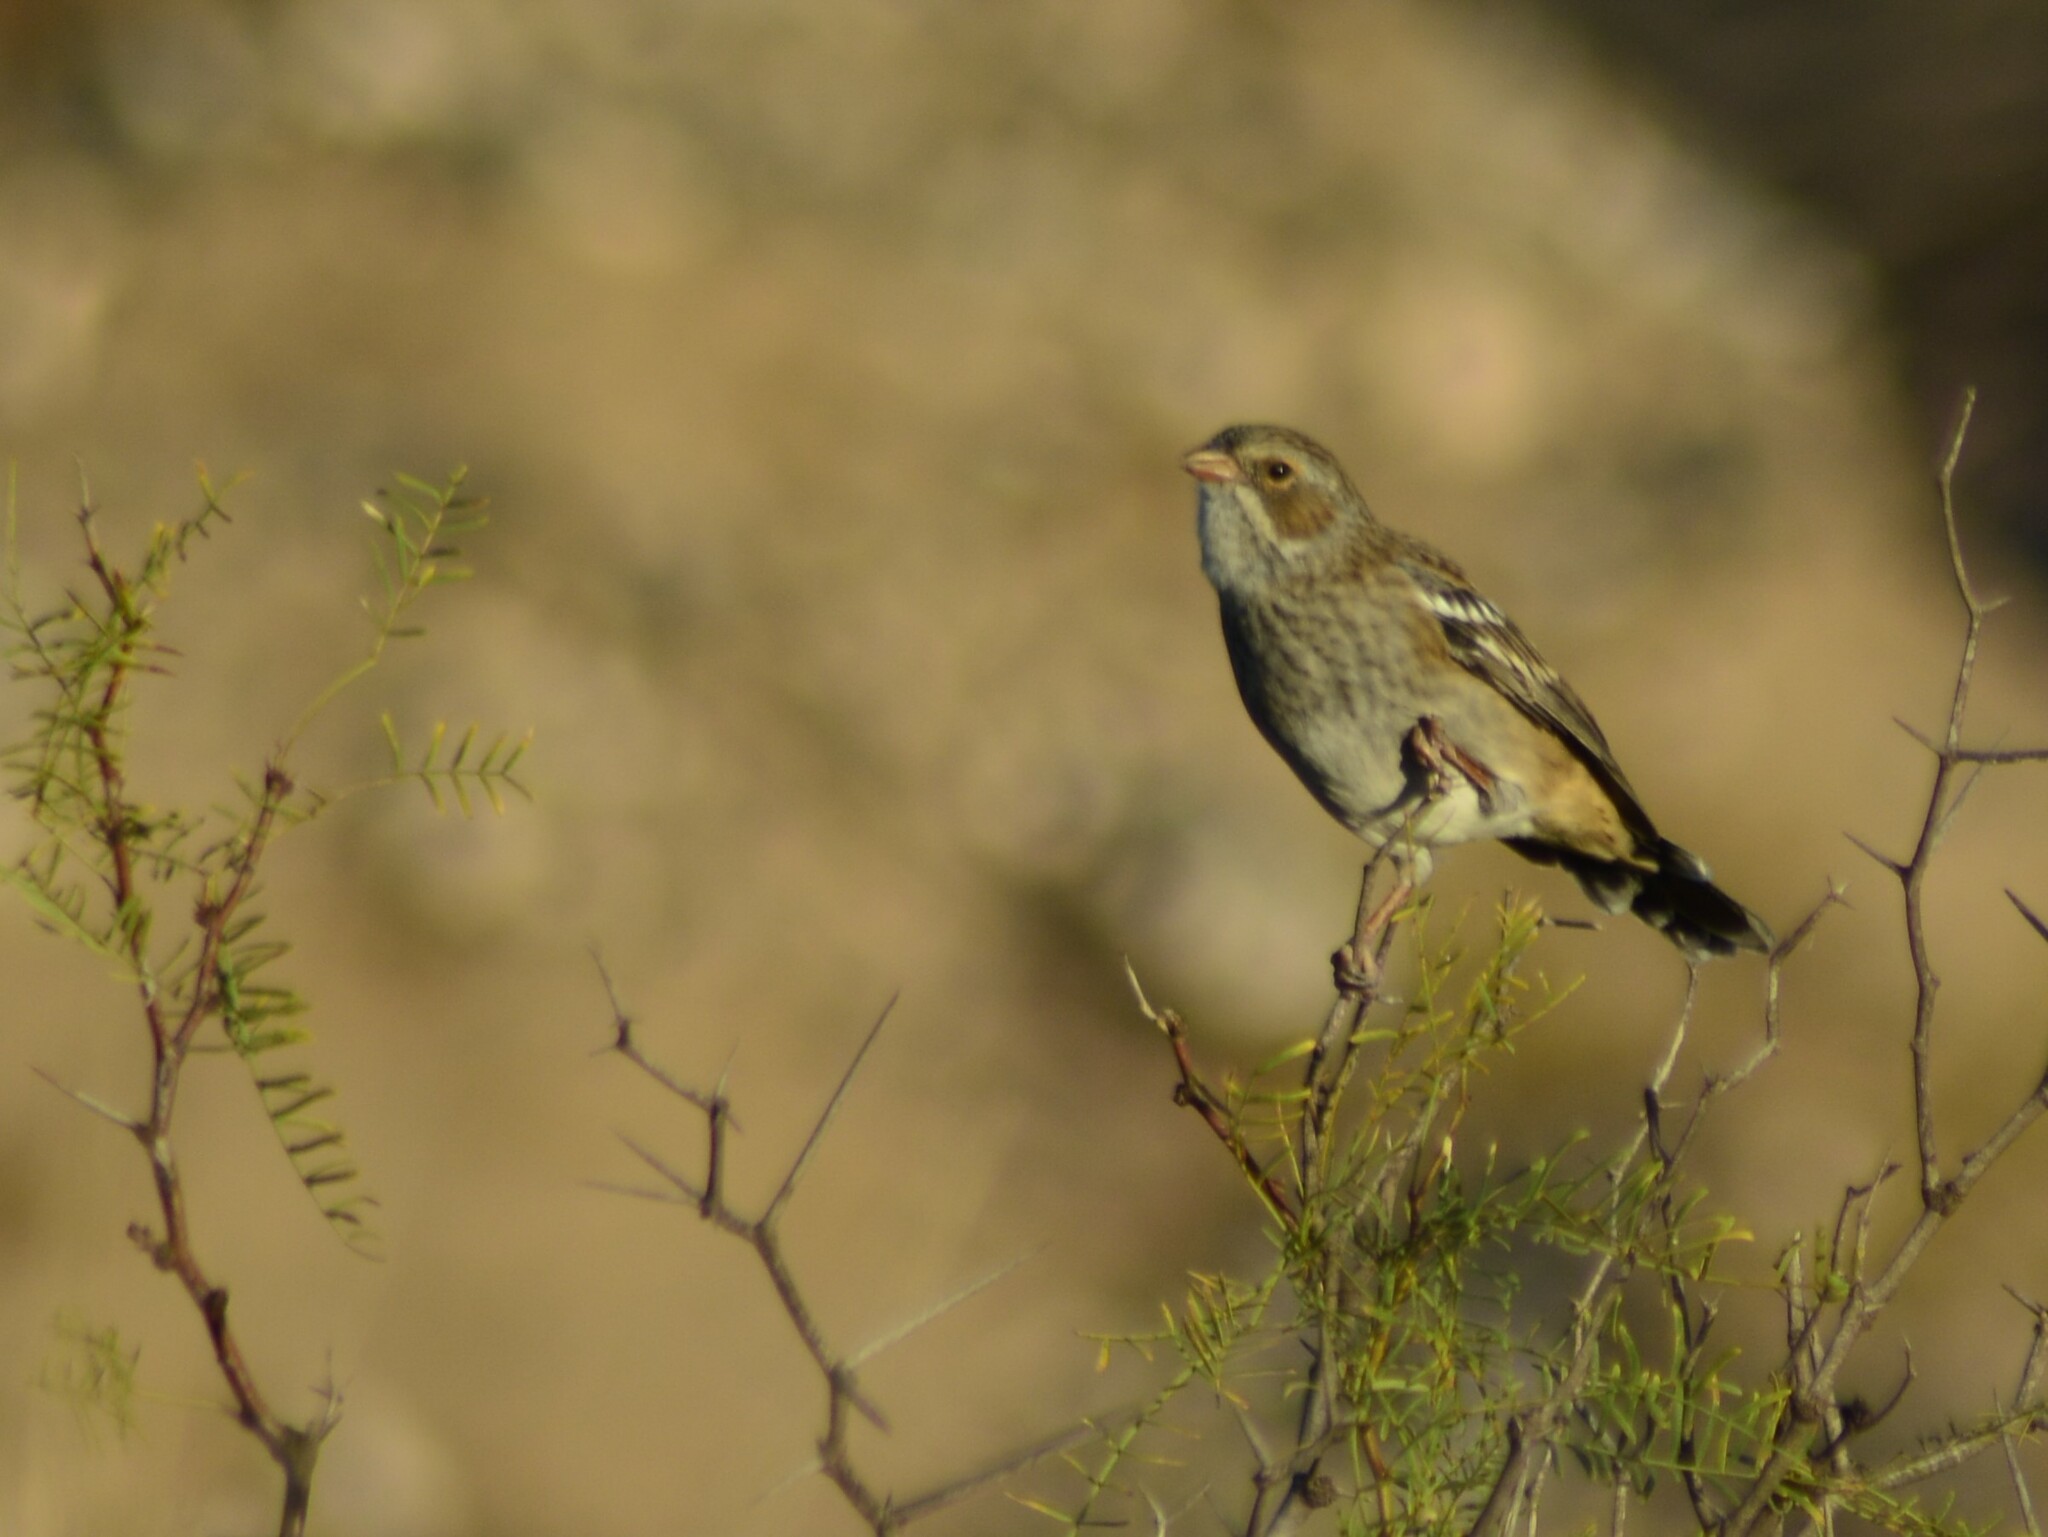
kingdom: Animalia
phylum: Chordata
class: Aves
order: Passeriformes
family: Thraupidae
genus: Rhopospina
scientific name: Rhopospina fruticeti
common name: Mourning sierra finch
